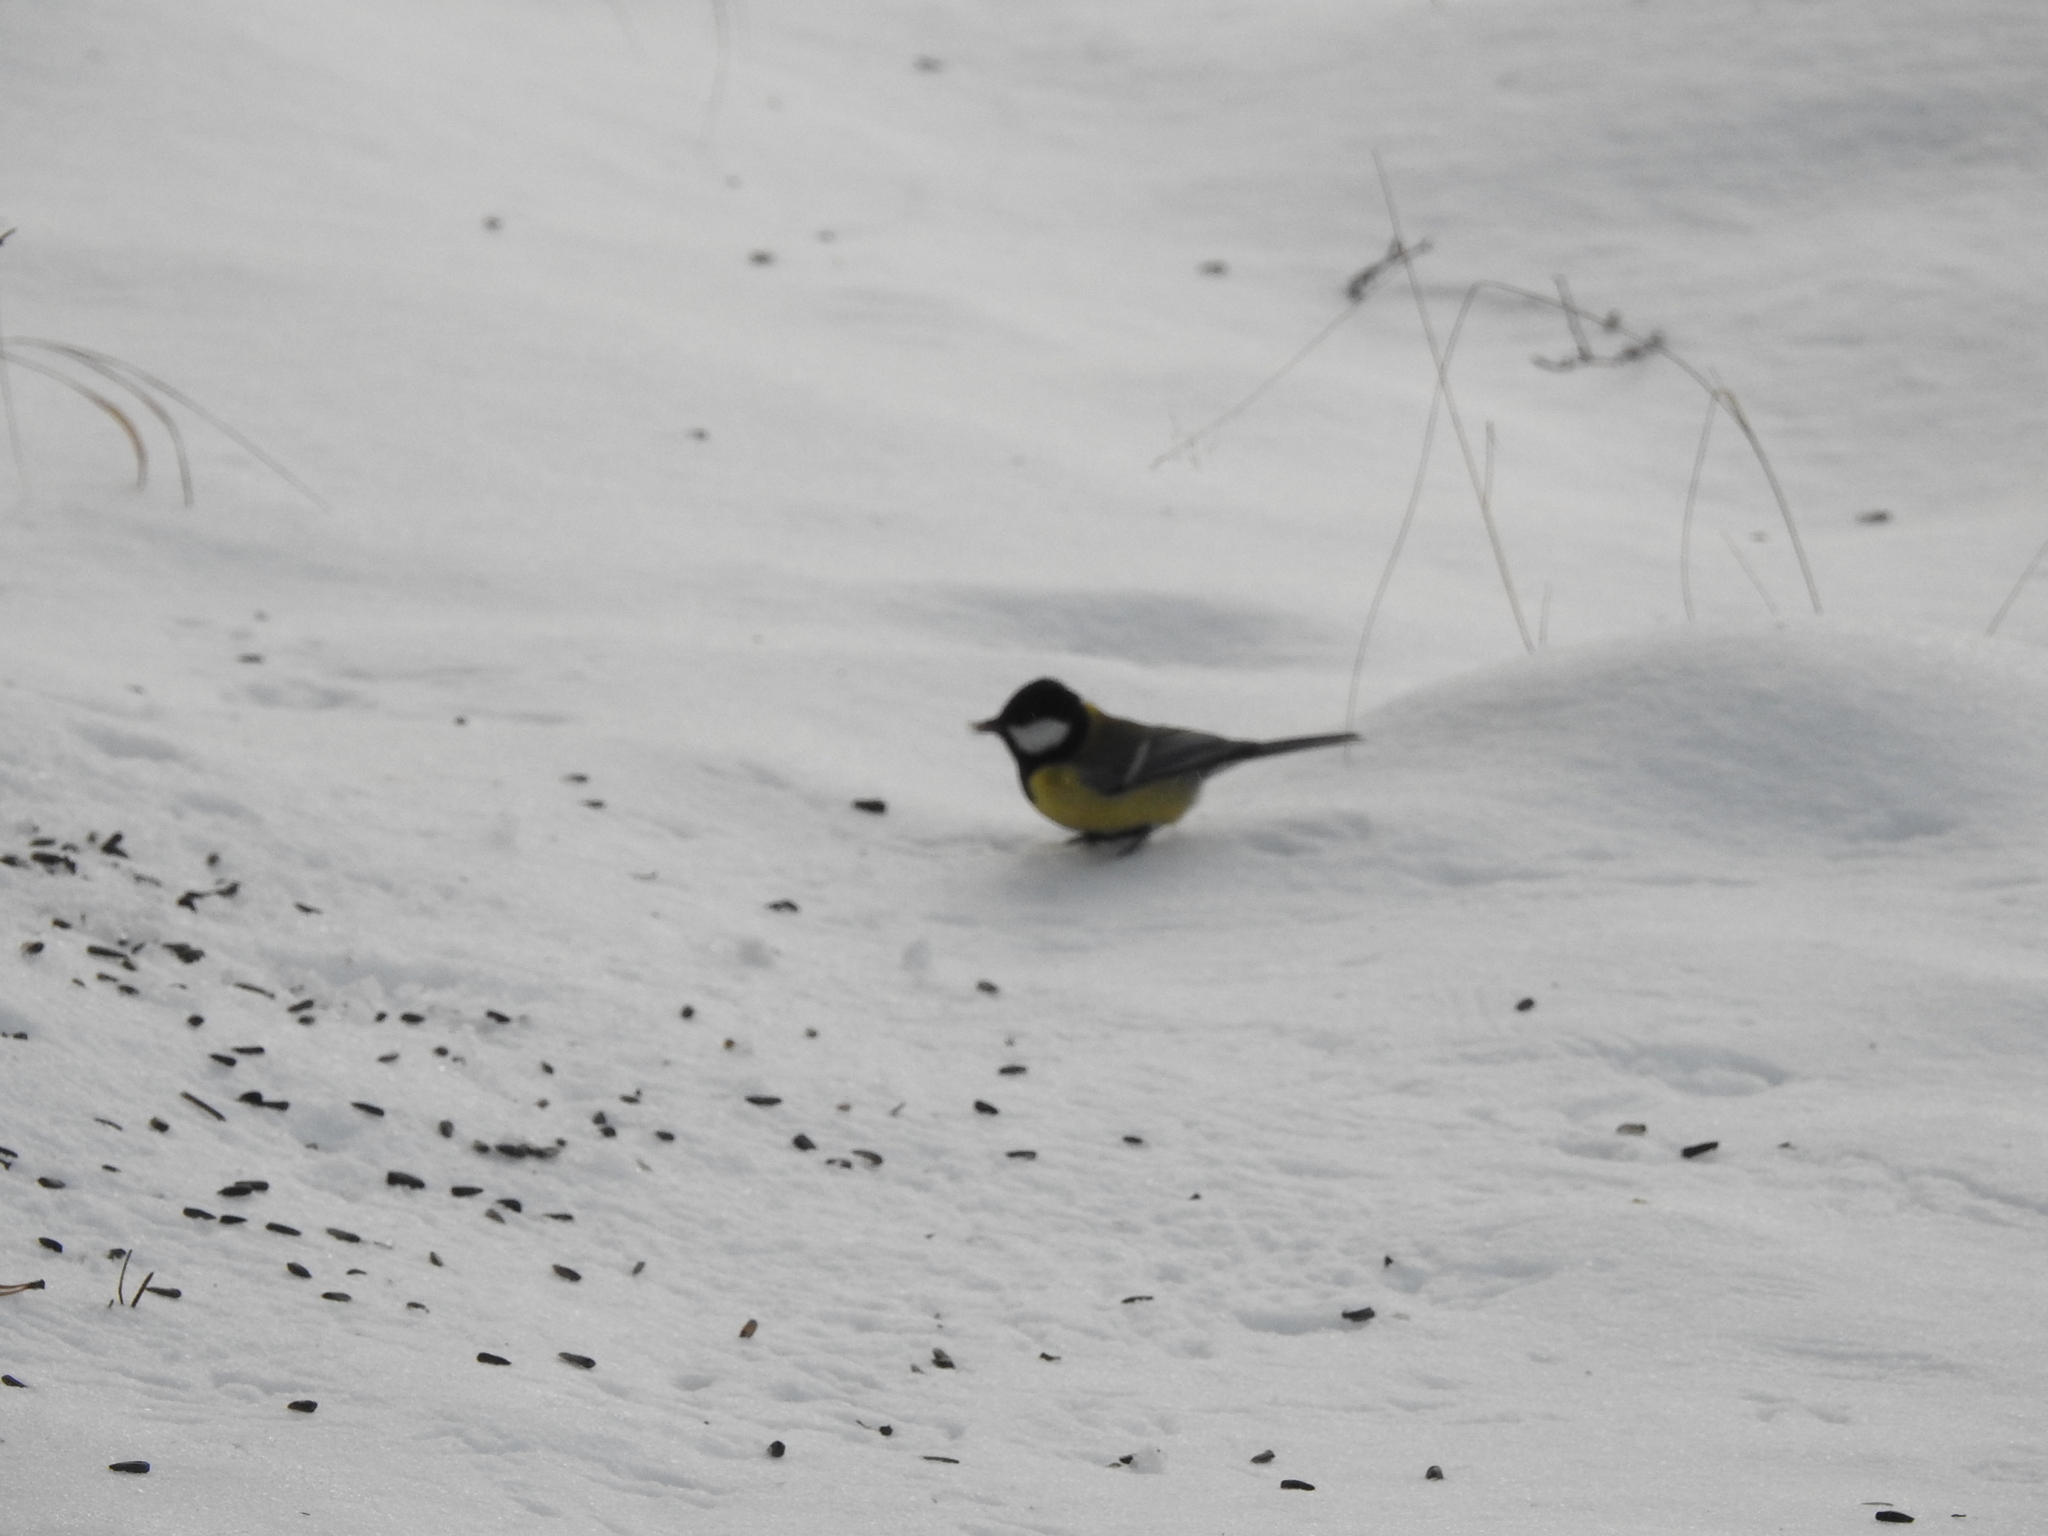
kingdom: Animalia
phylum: Chordata
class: Aves
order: Passeriformes
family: Paridae
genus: Parus
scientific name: Parus major
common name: Great tit
